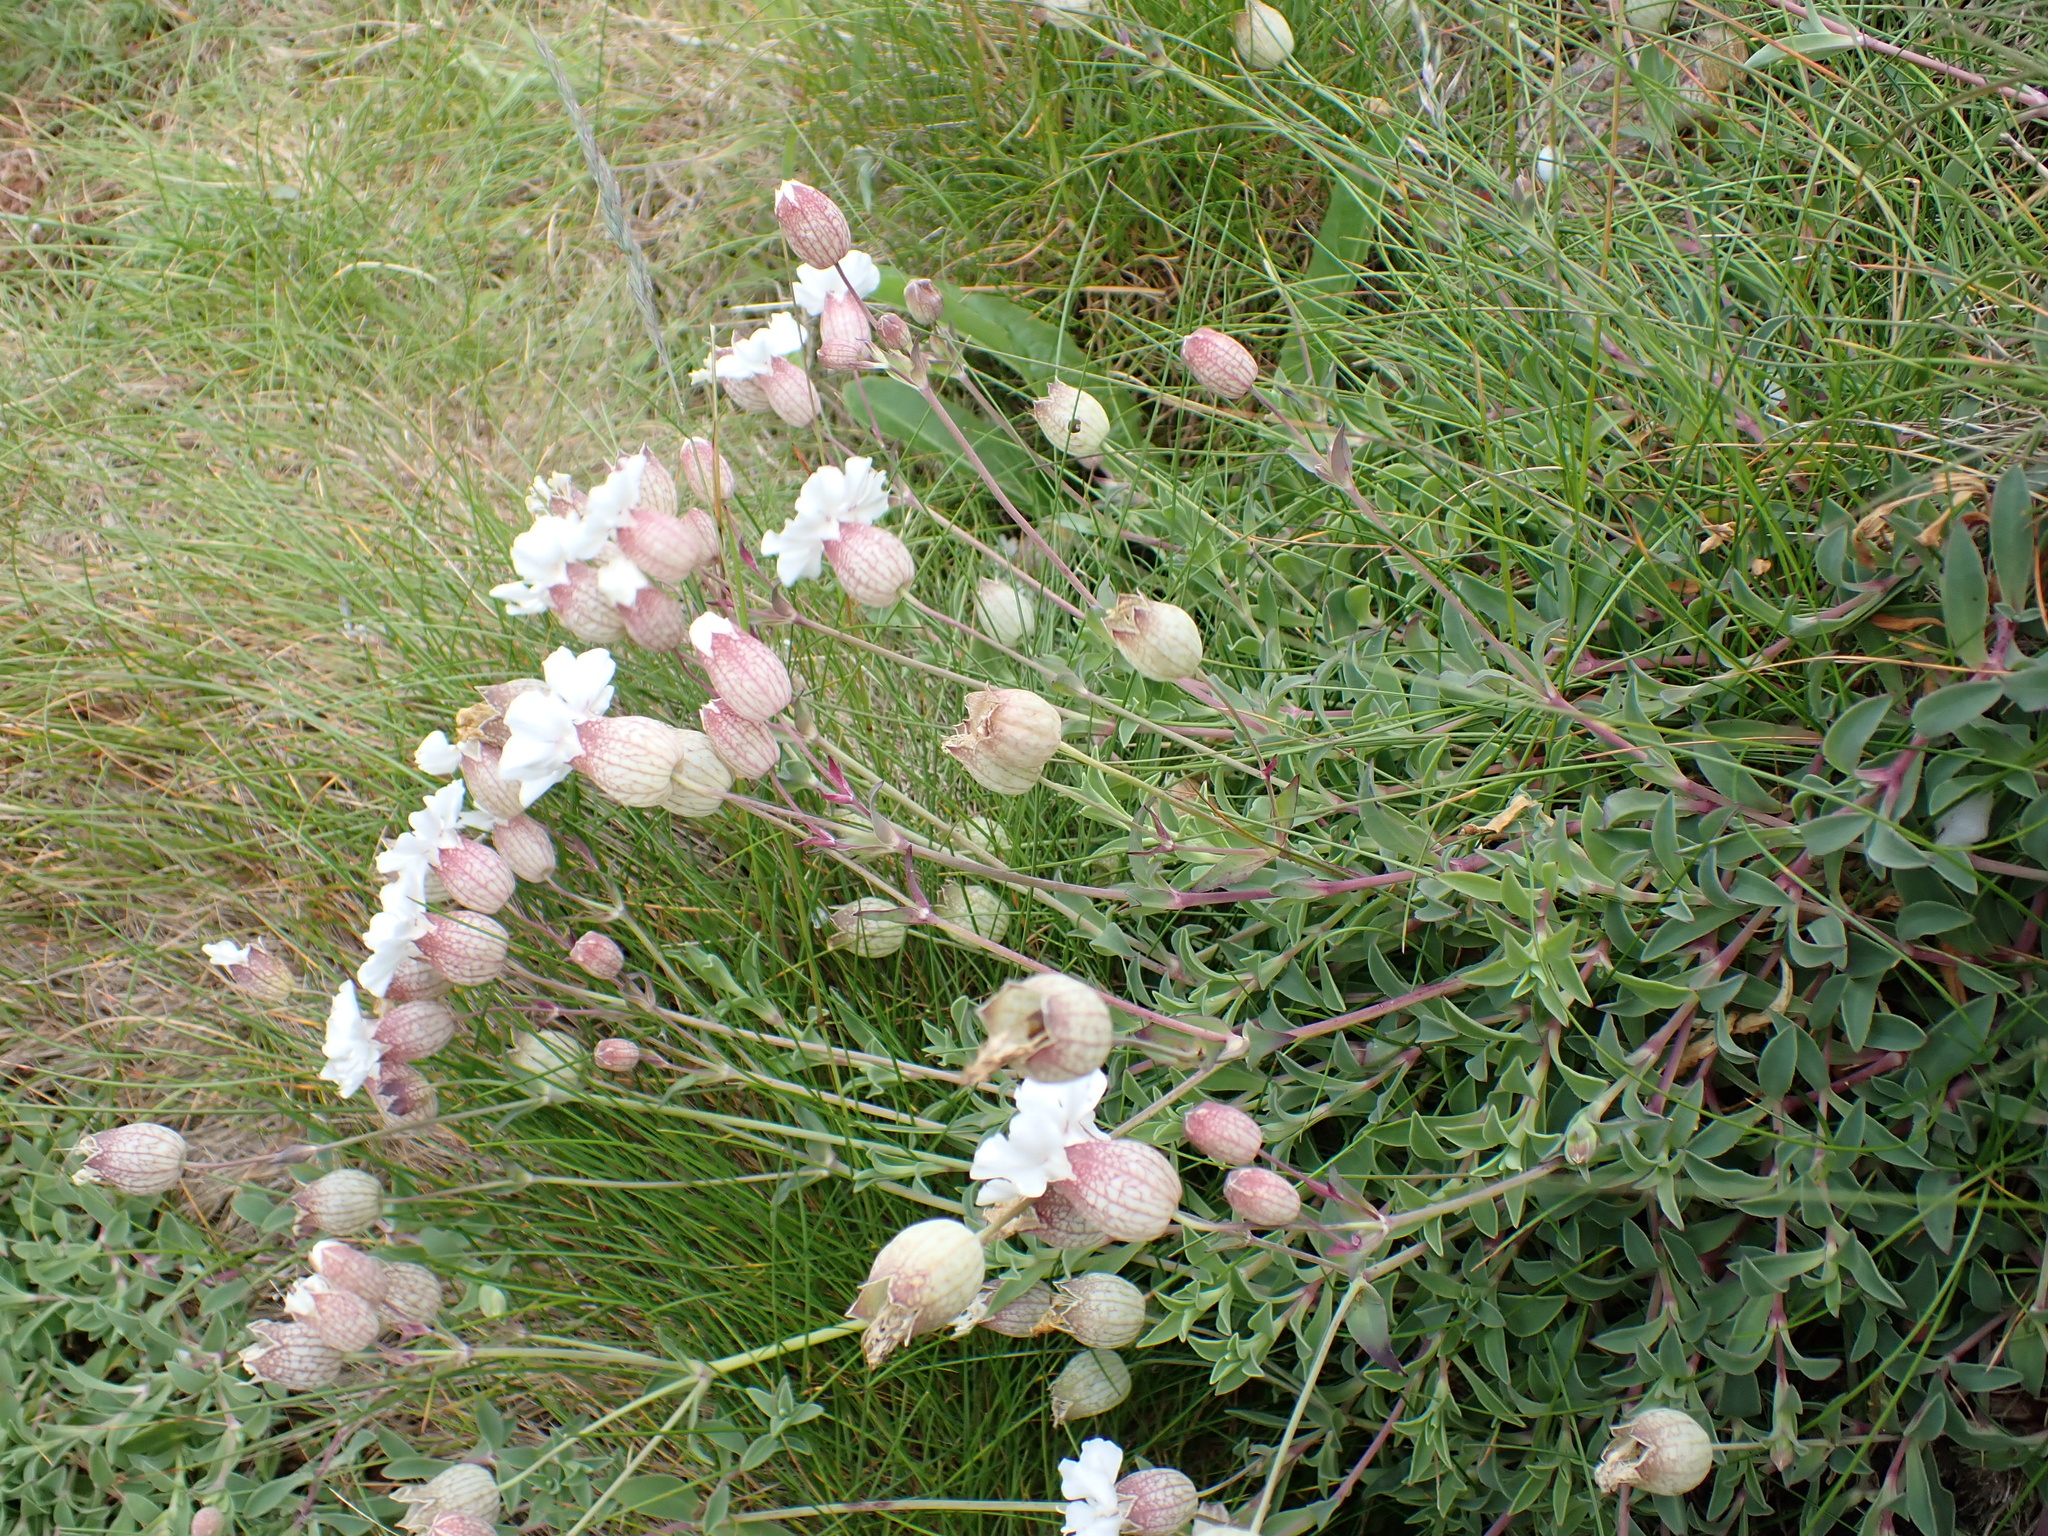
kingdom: Plantae
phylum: Tracheophyta
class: Magnoliopsida
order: Caryophyllales
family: Caryophyllaceae
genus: Silene
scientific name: Silene uniflora
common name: Sea campion
